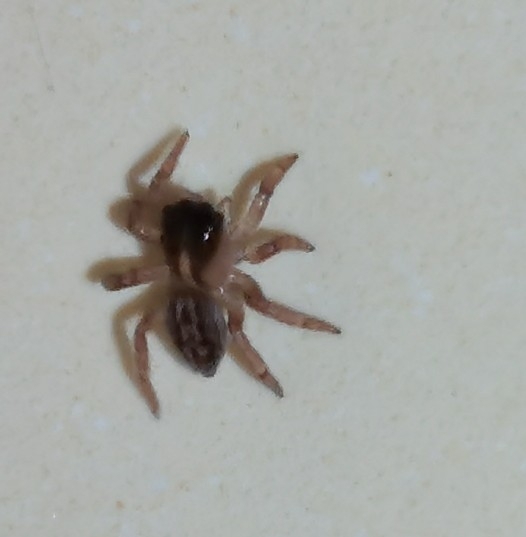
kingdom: Animalia
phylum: Arthropoda
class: Arachnida
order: Araneae
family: Salticidae
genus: Saitis
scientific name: Saitis barbipes
